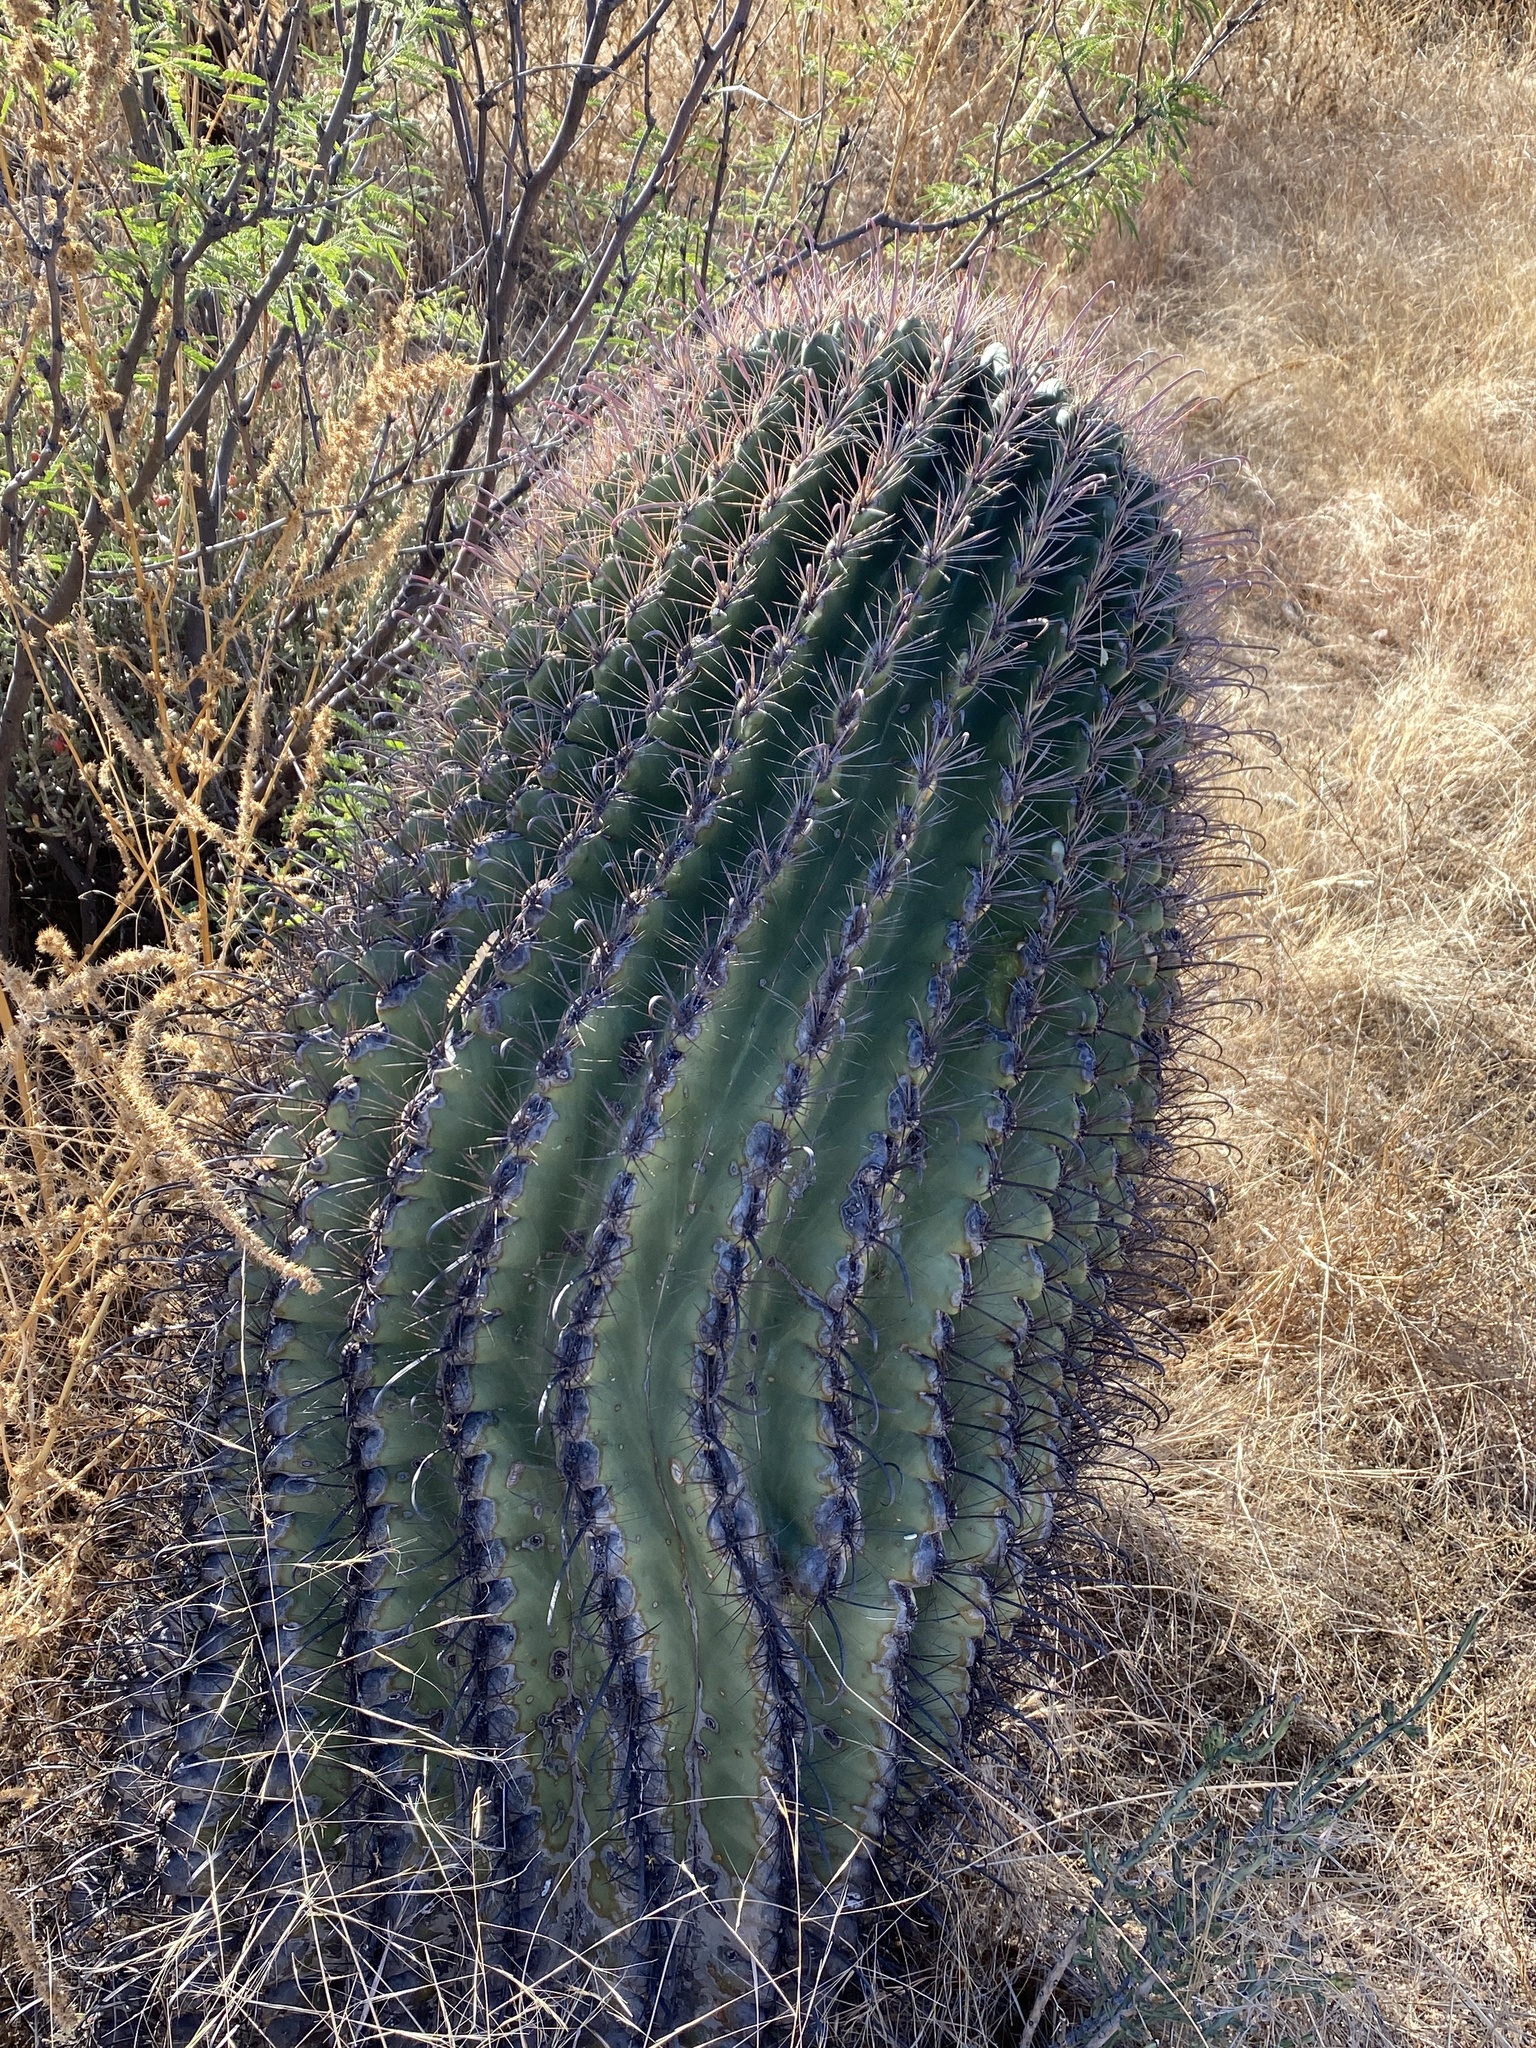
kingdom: Plantae
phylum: Tracheophyta
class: Magnoliopsida
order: Caryophyllales
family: Cactaceae
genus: Ferocactus
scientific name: Ferocactus wislizeni
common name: Candy barrel cactus
